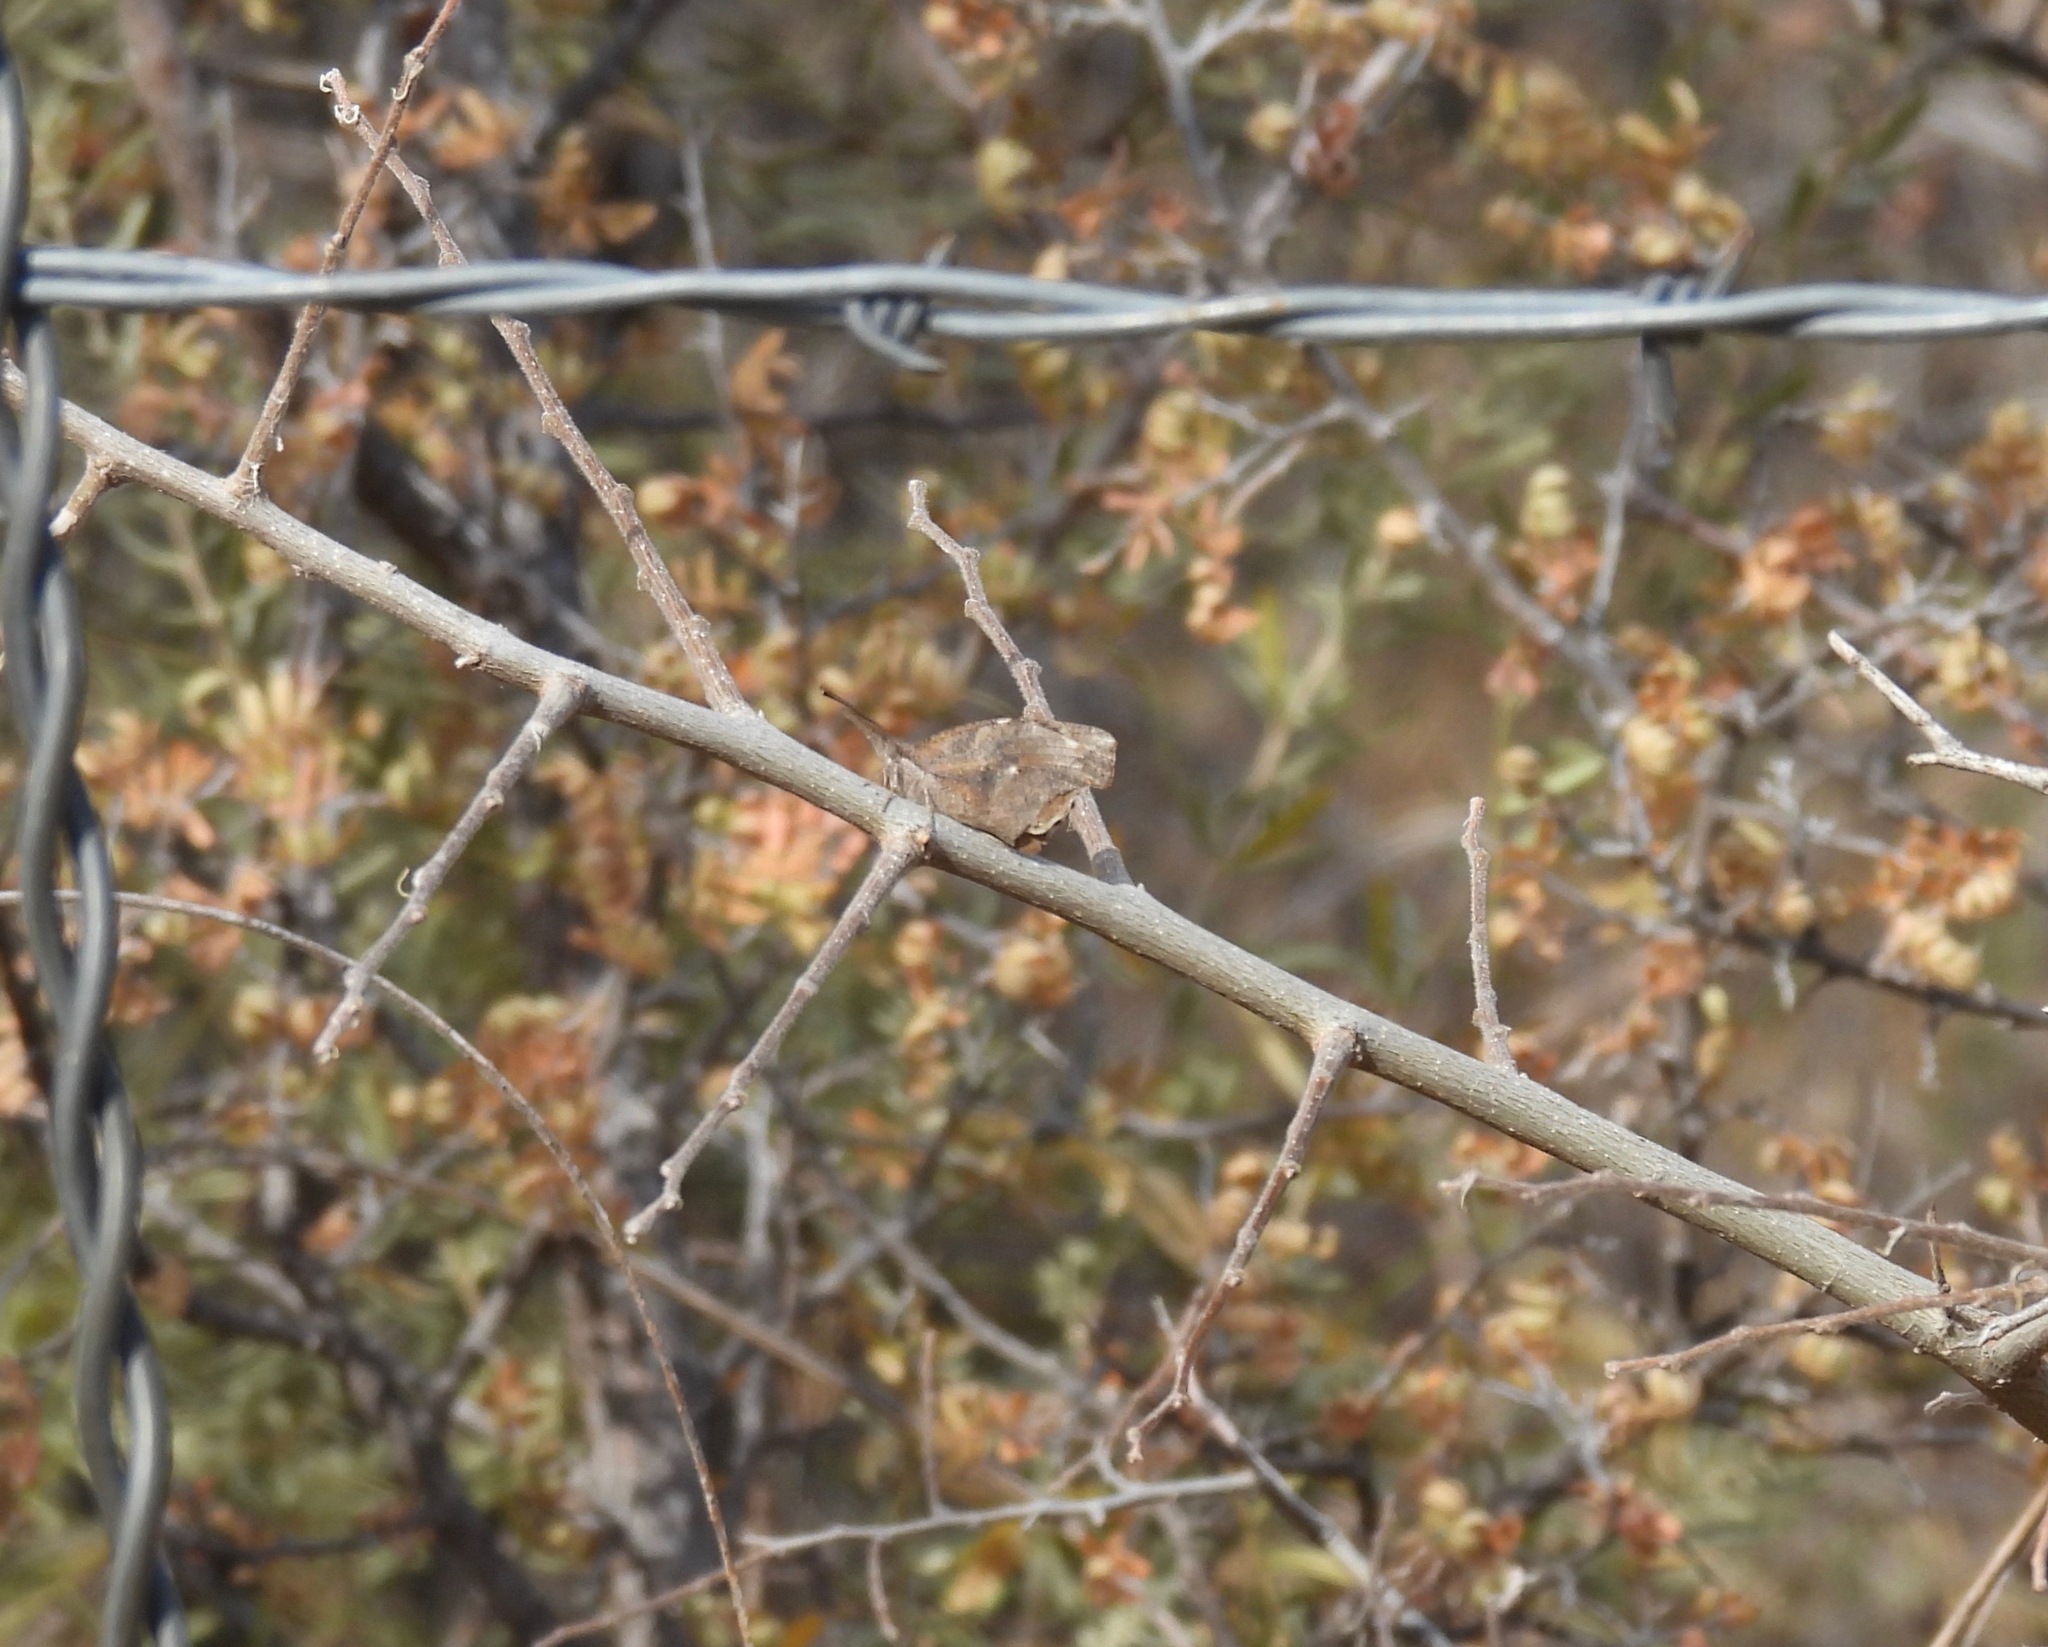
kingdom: Animalia
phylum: Arthropoda
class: Insecta
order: Lepidoptera
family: Nymphalidae
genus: Libytheana
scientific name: Libytheana carinenta
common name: American snout
